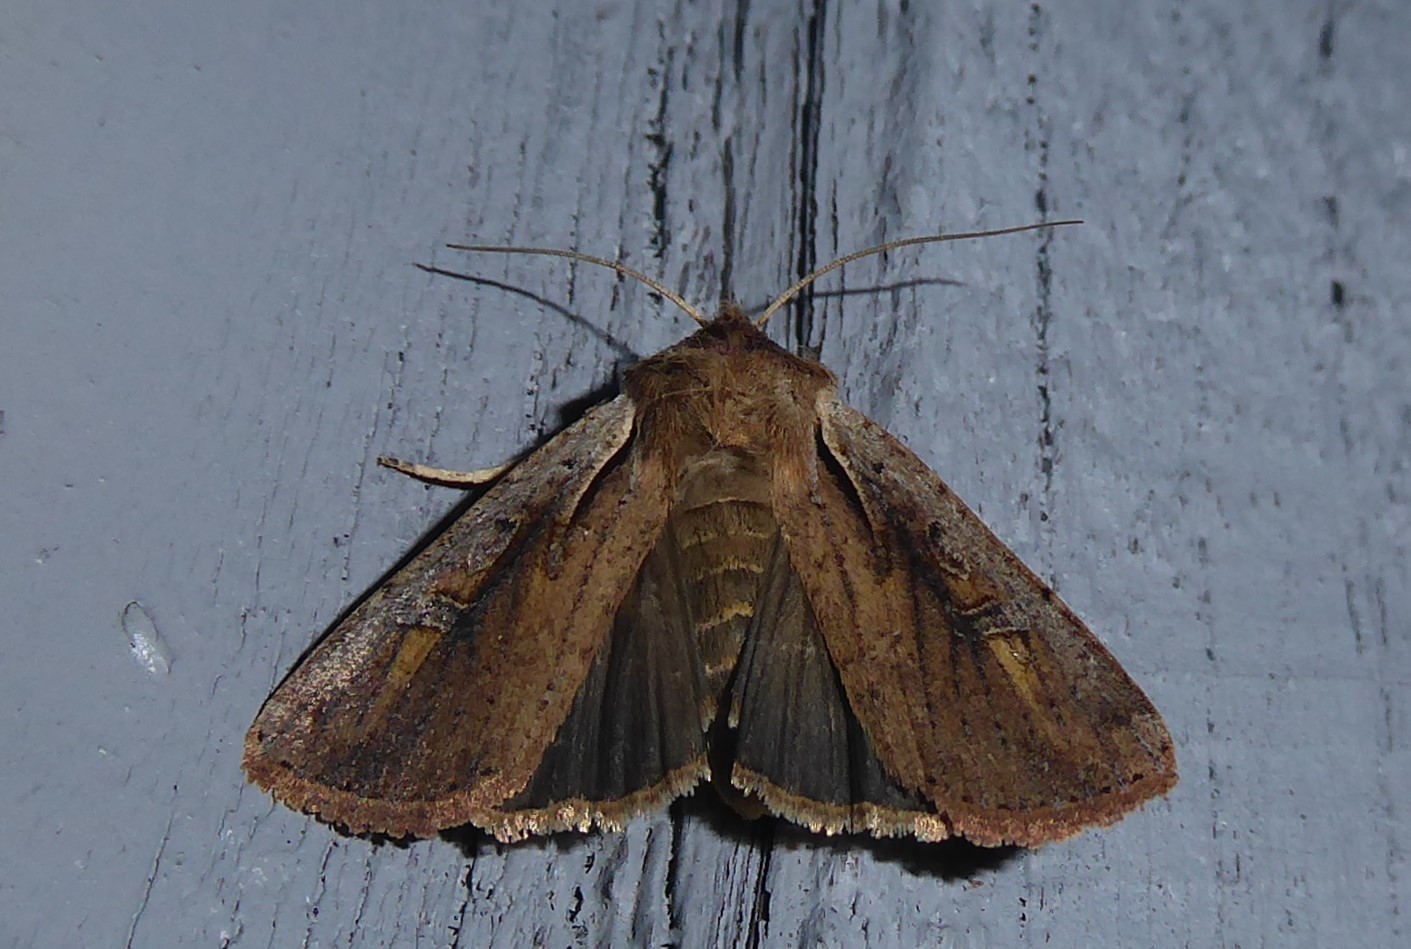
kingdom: Animalia
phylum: Arthropoda
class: Insecta
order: Lepidoptera
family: Noctuidae
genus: Ichneutica
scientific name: Ichneutica atristriga
